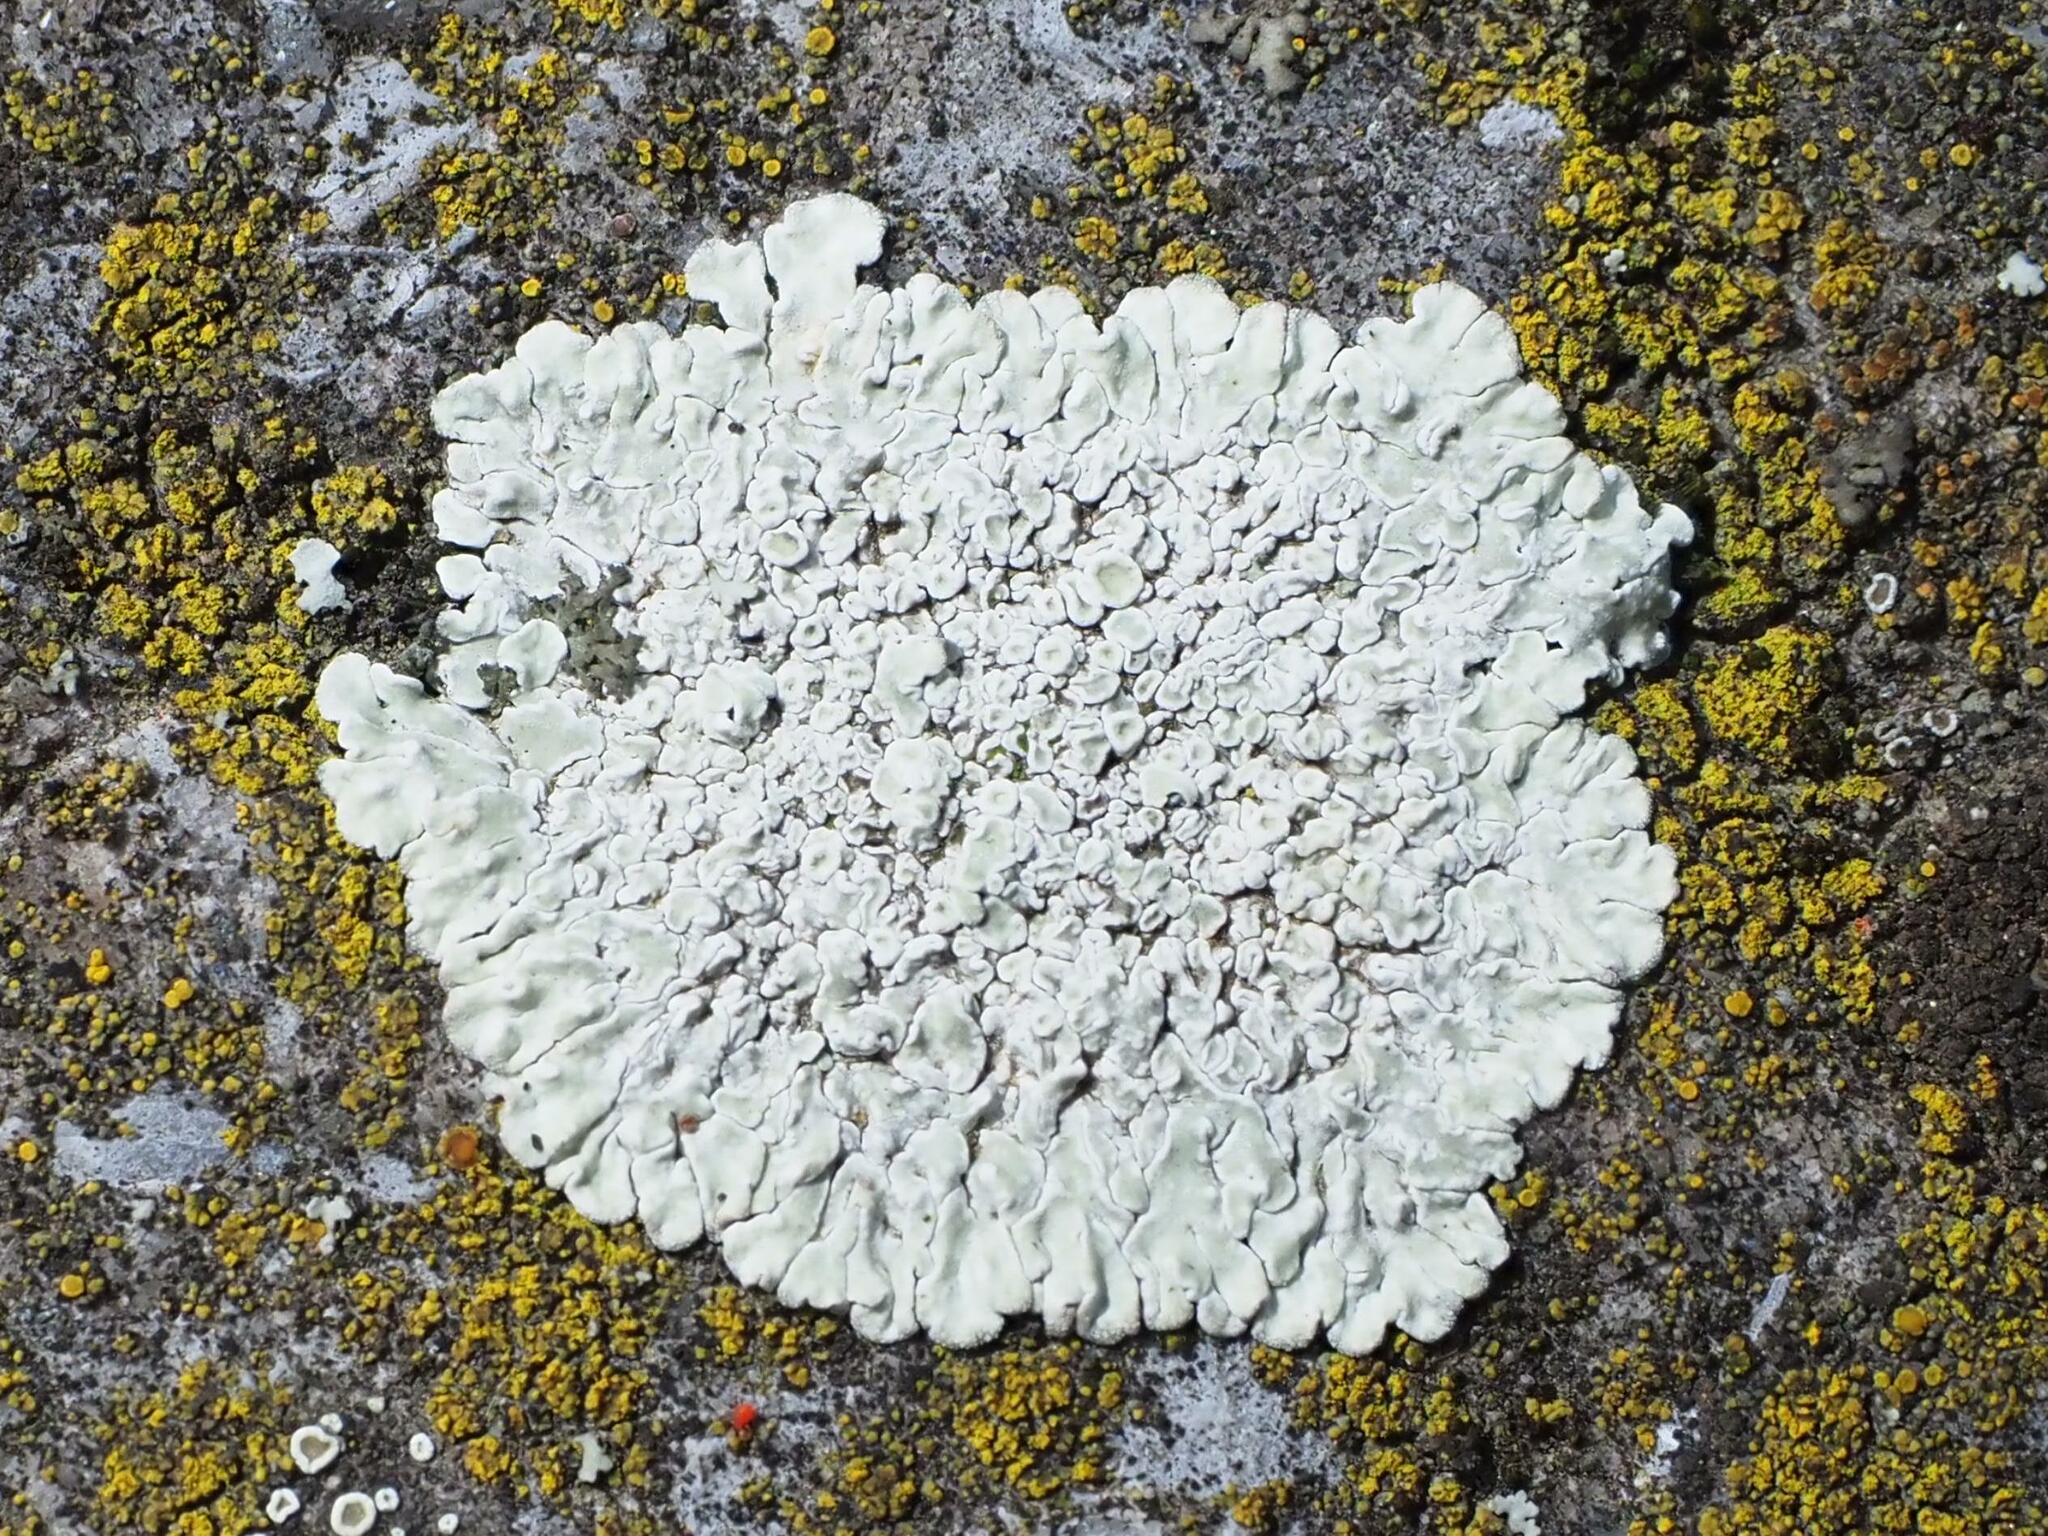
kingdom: Fungi
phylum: Ascomycota
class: Lecanoromycetes
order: Lecanorales
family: Lecanoraceae
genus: Protoparmeliopsis
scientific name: Protoparmeliopsis muralis
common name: Stonewall rim lichen
